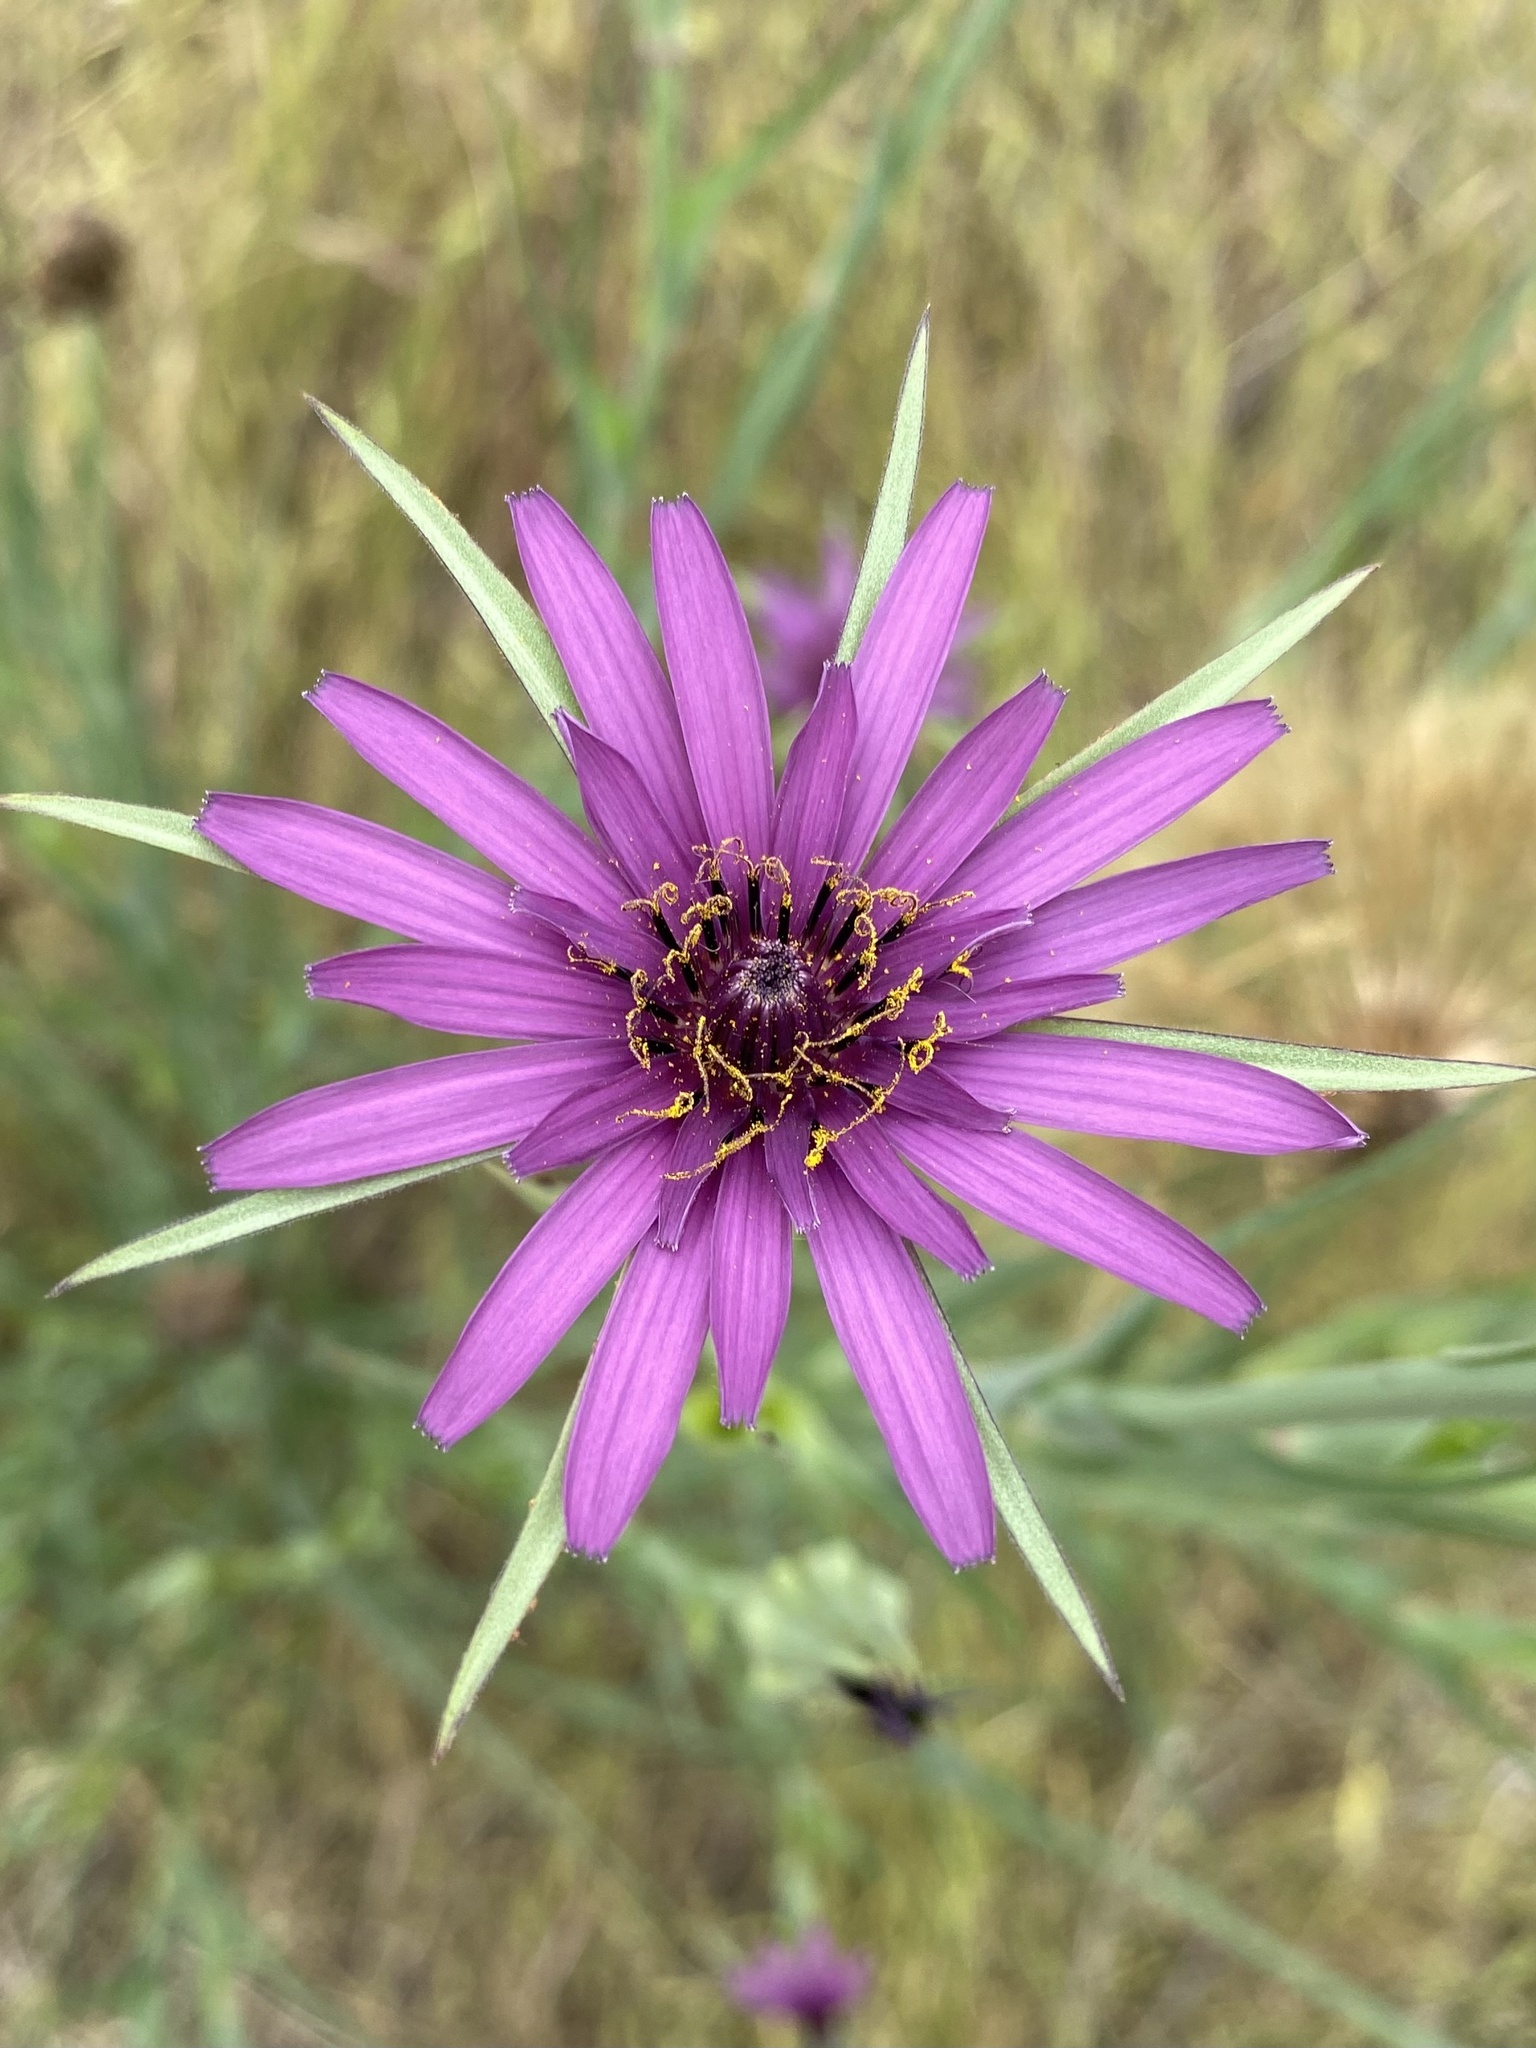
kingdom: Plantae
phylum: Tracheophyta
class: Magnoliopsida
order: Asterales
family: Asteraceae
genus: Tragopogon
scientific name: Tragopogon porrifolius
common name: Salsify
